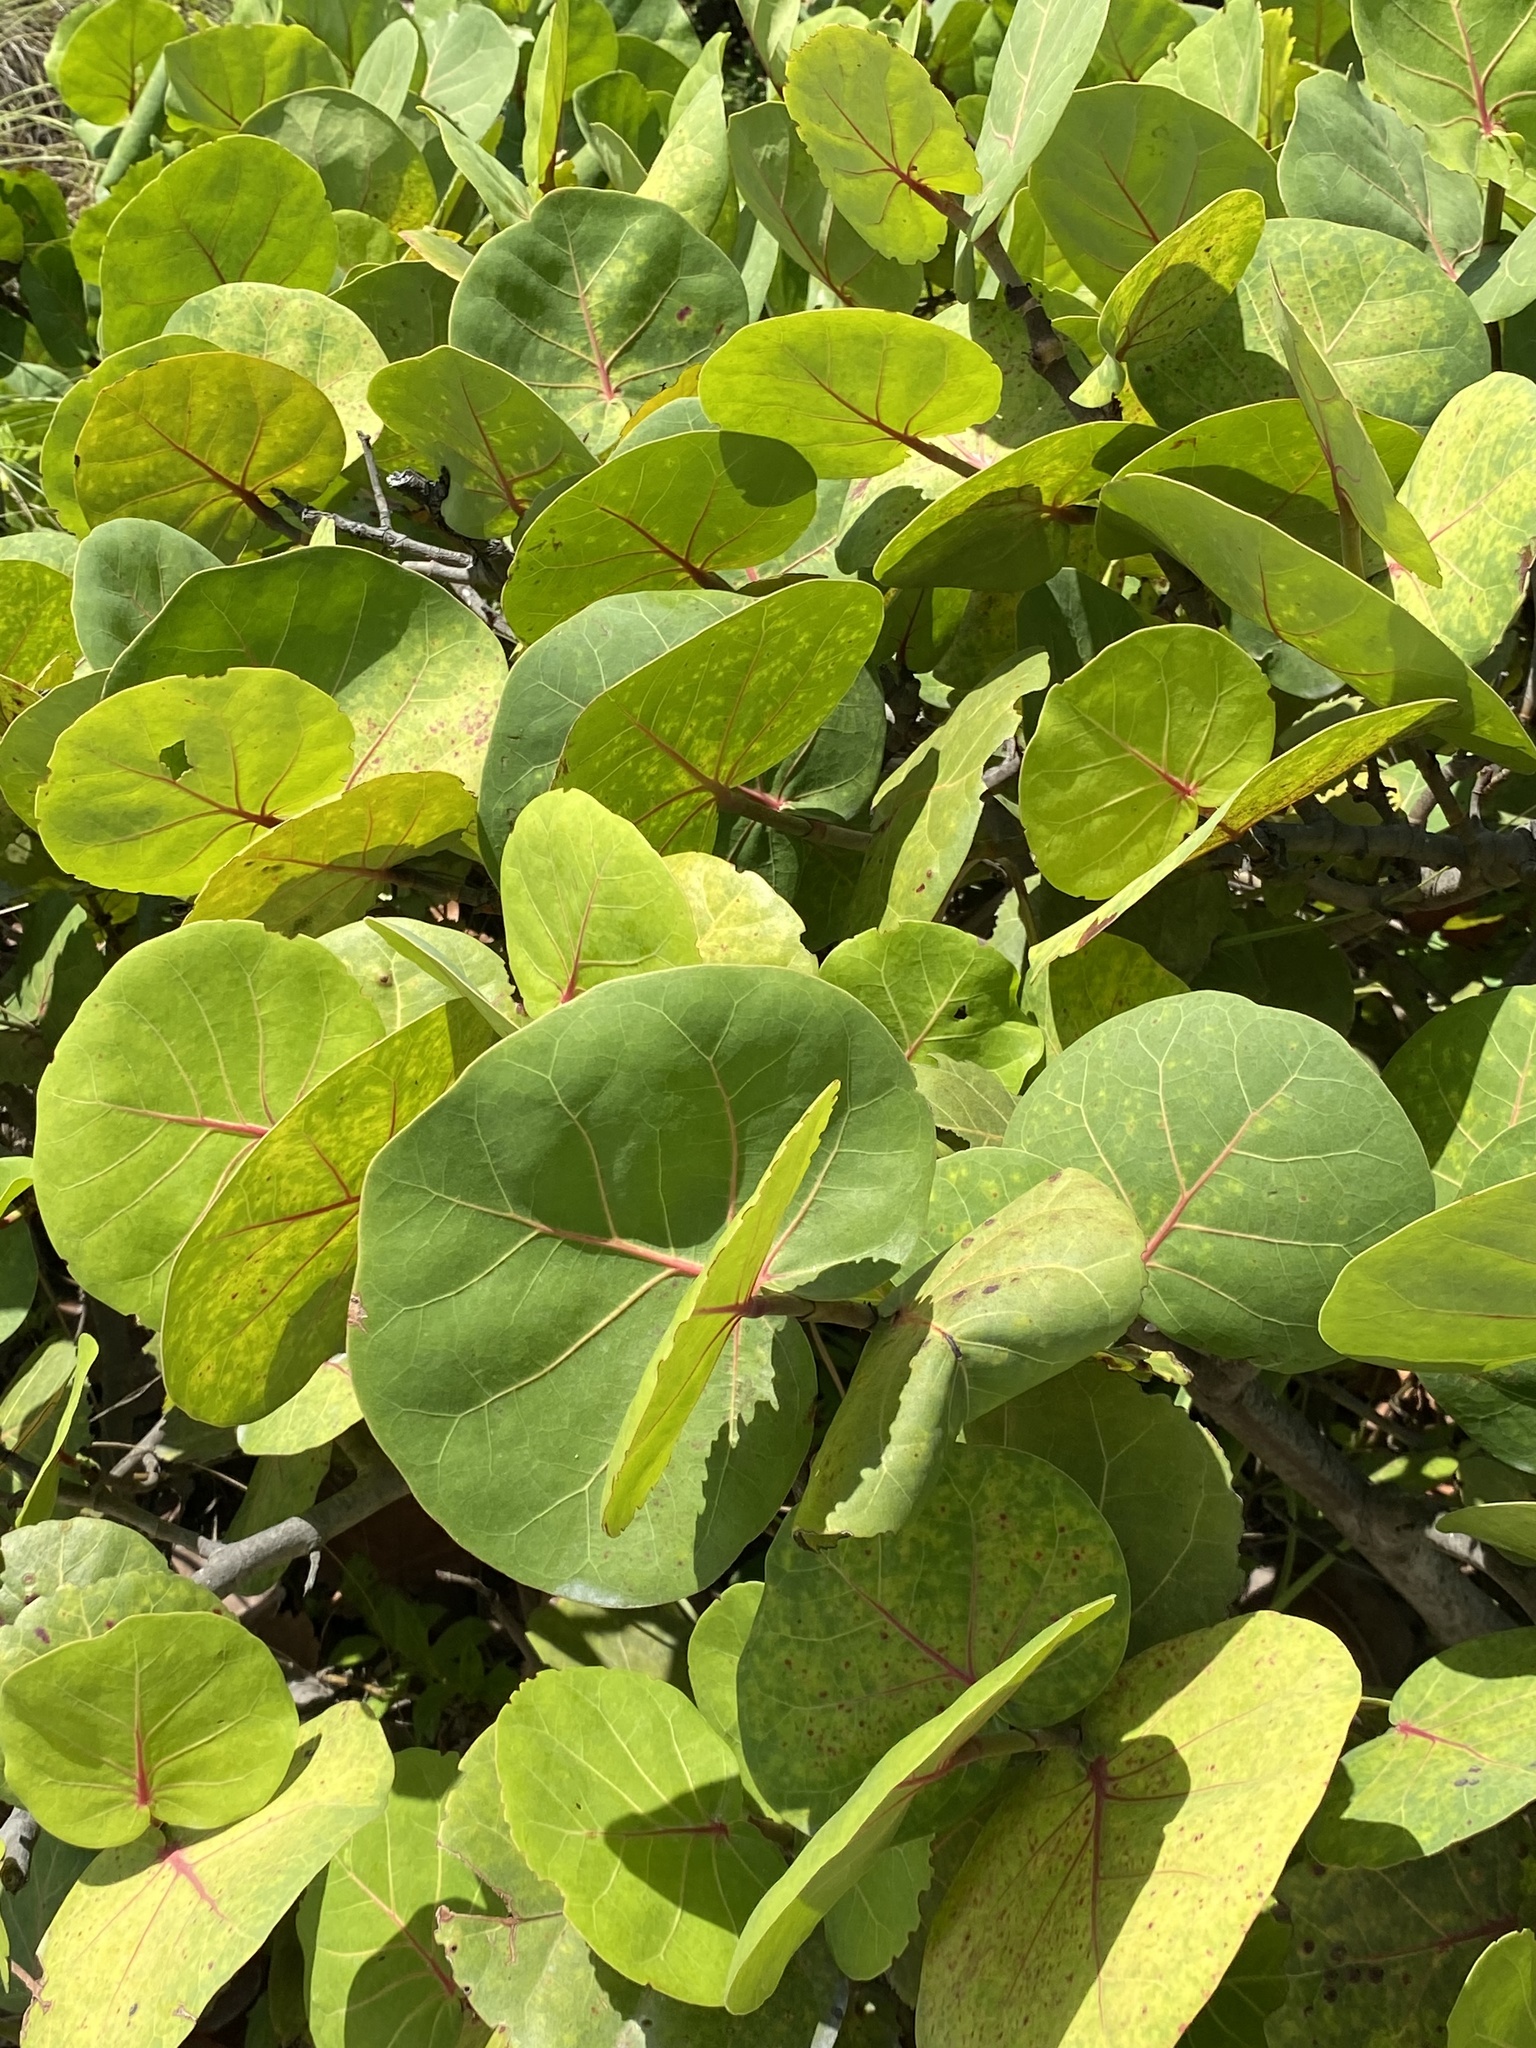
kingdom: Plantae
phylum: Tracheophyta
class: Magnoliopsida
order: Caryophyllales
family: Polygonaceae
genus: Coccoloba
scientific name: Coccoloba uvifera
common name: Seagrape
